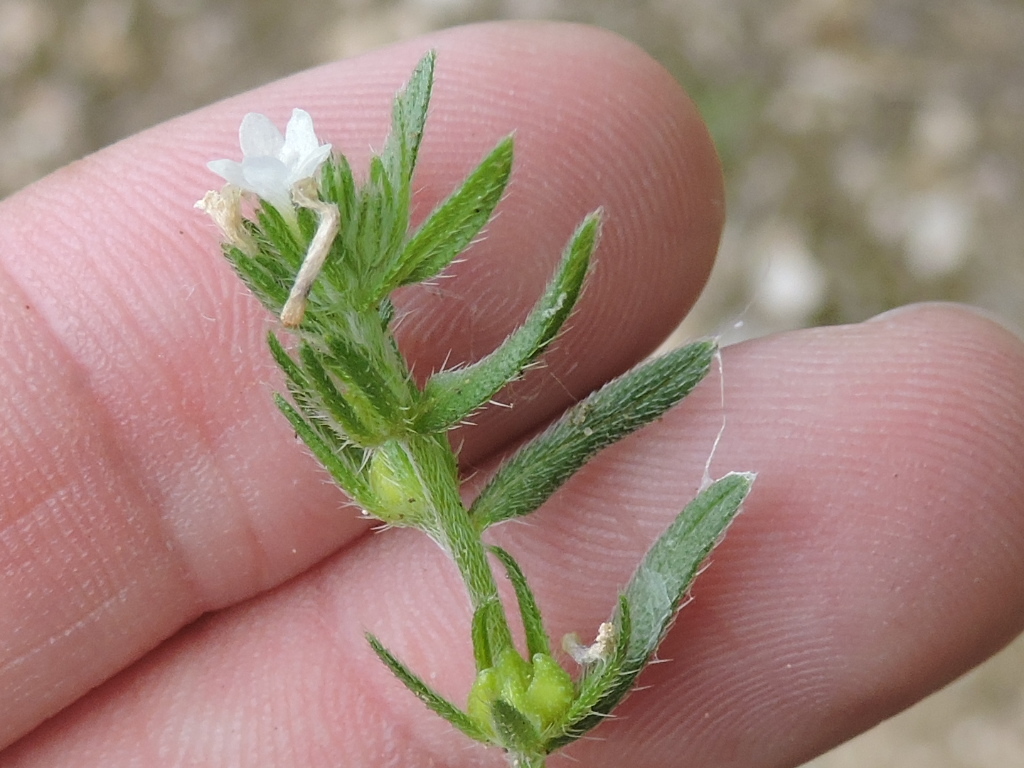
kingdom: Plantae
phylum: Tracheophyta
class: Magnoliopsida
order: Boraginales
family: Boraginaceae
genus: Buglossoides
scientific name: Buglossoides arvensis
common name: Corn gromwell
